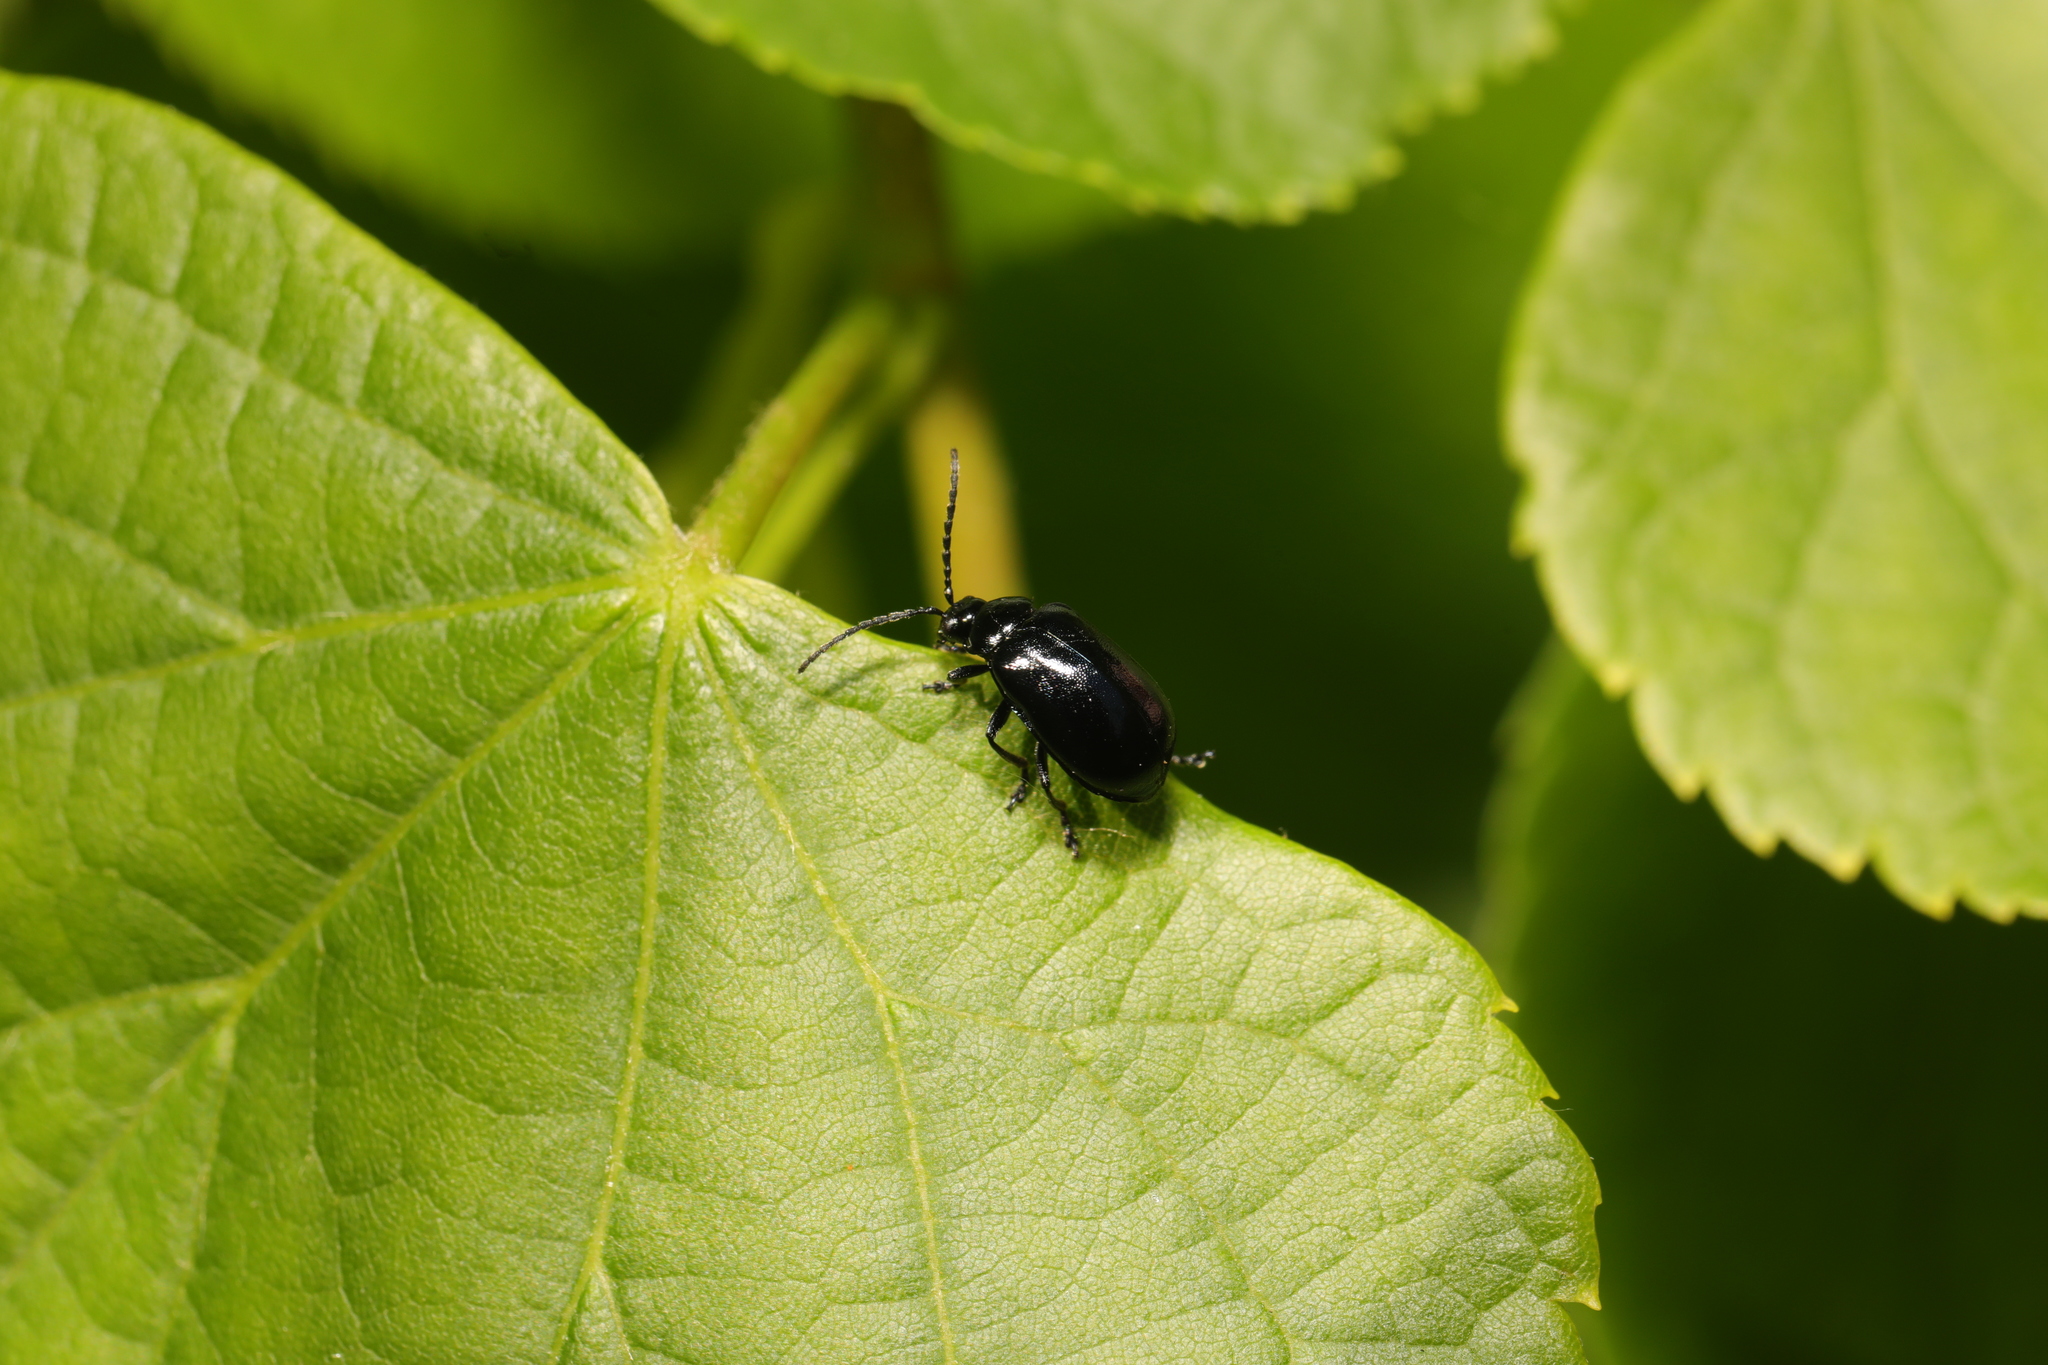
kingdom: Animalia
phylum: Arthropoda
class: Insecta
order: Coleoptera
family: Chrysomelidae
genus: Agelastica
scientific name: Agelastica alni
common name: Alder leaf beetle
